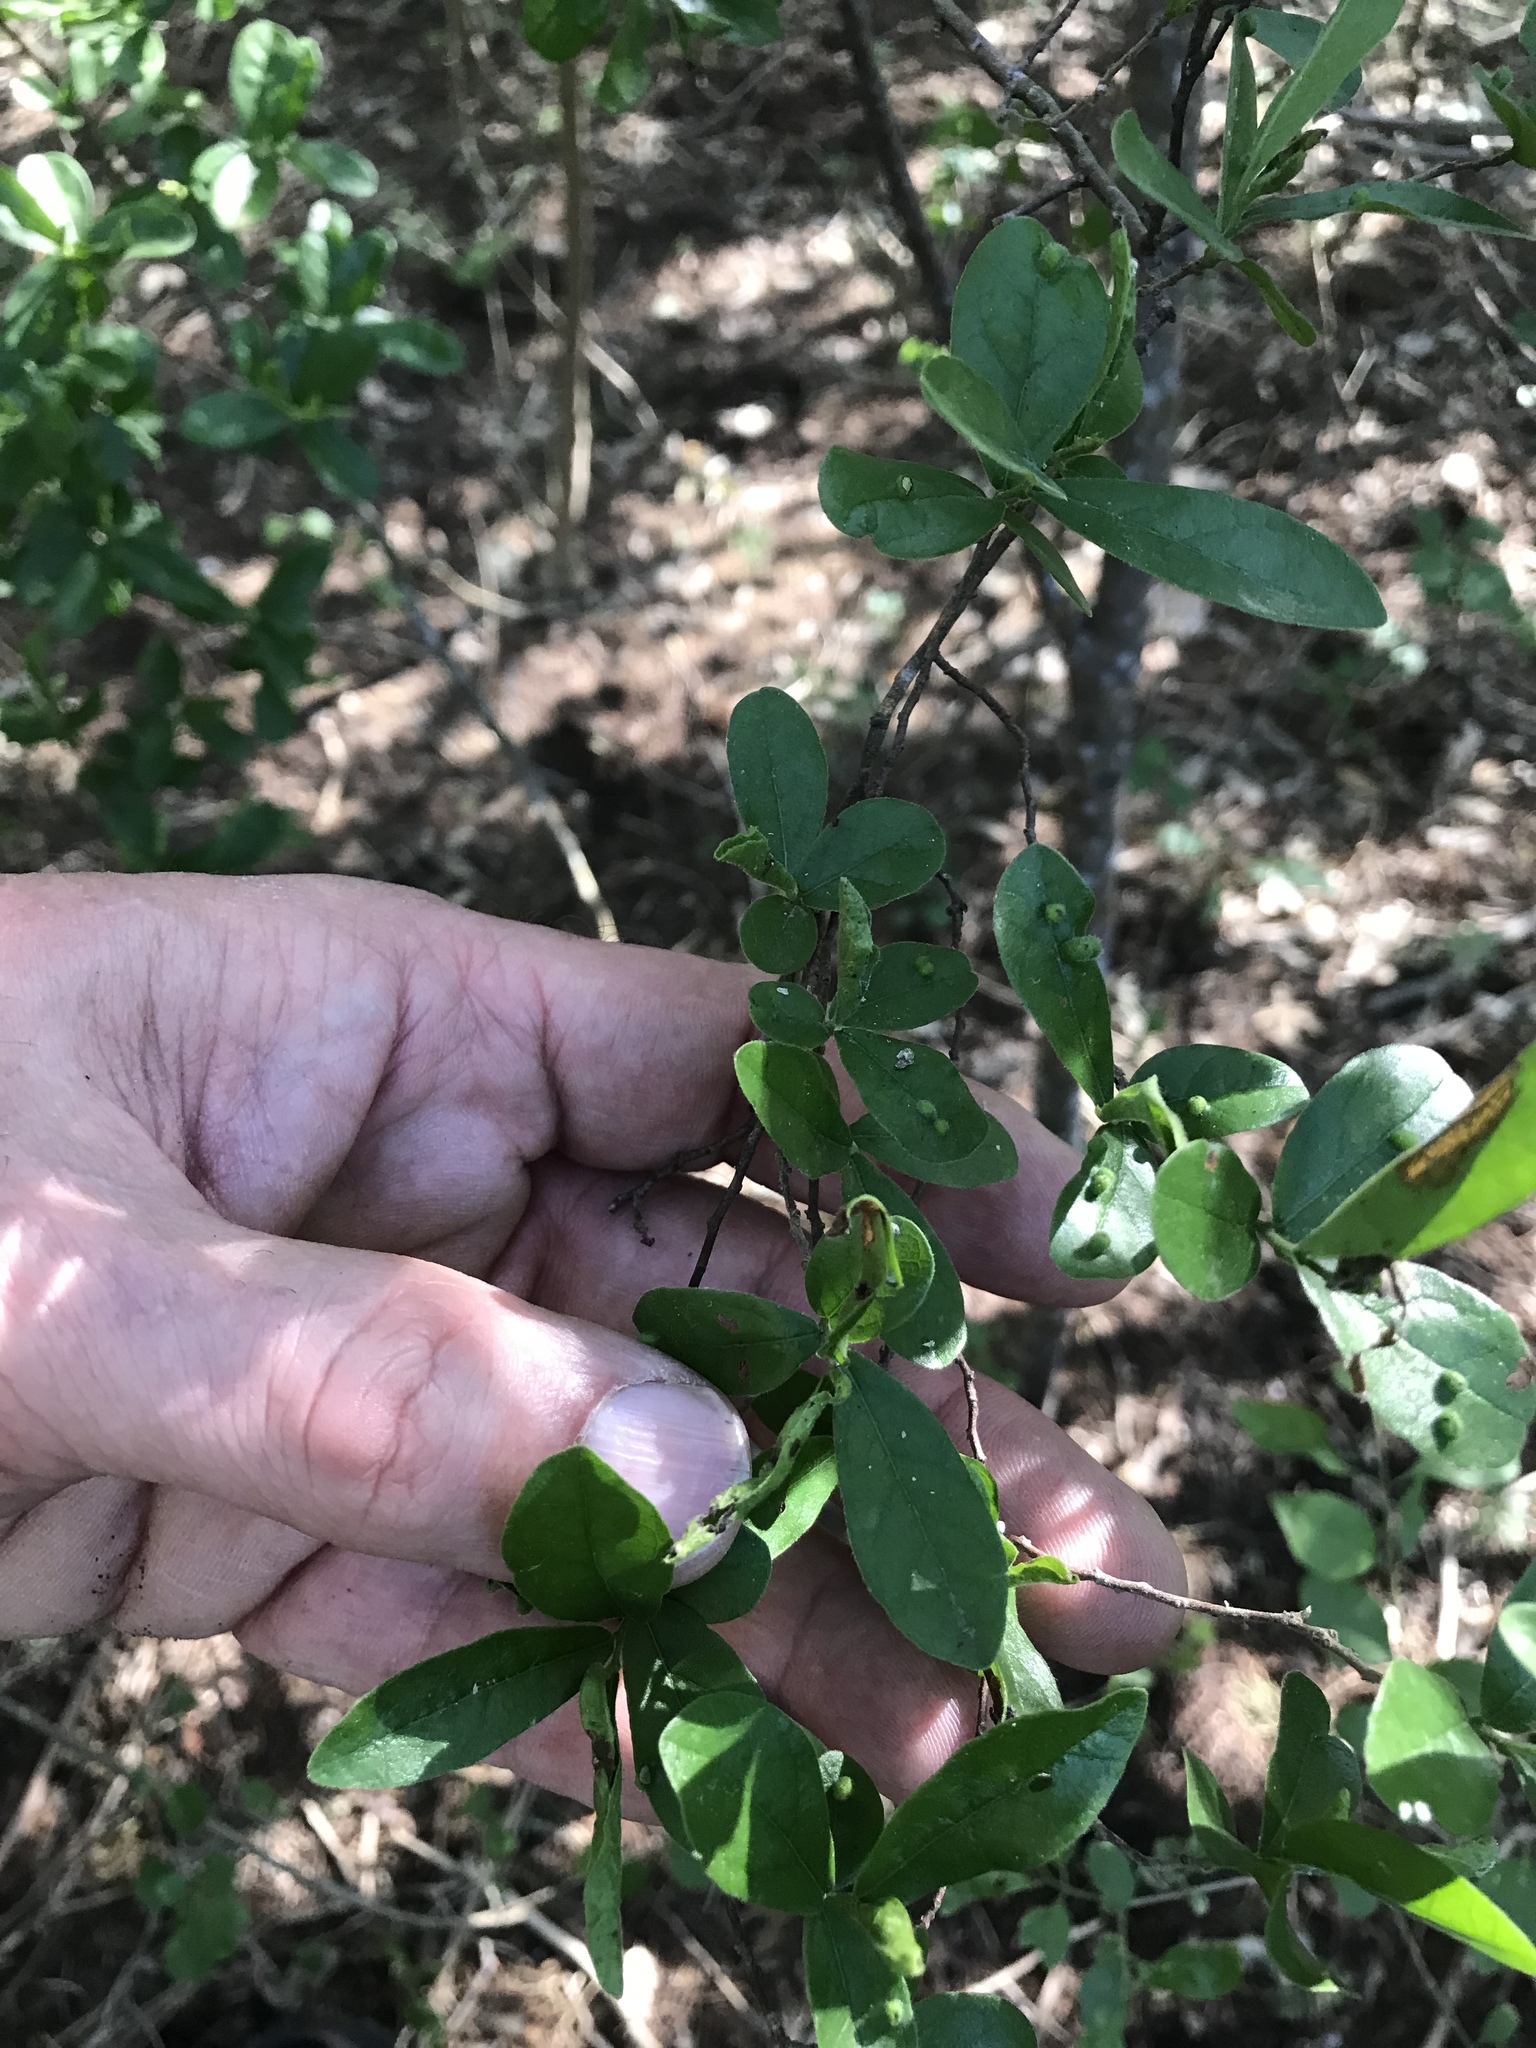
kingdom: Plantae
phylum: Tracheophyta
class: Magnoliopsida
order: Ericales
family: Ebenaceae
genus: Diospyros
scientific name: Diospyros texana
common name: Texas persimmon
